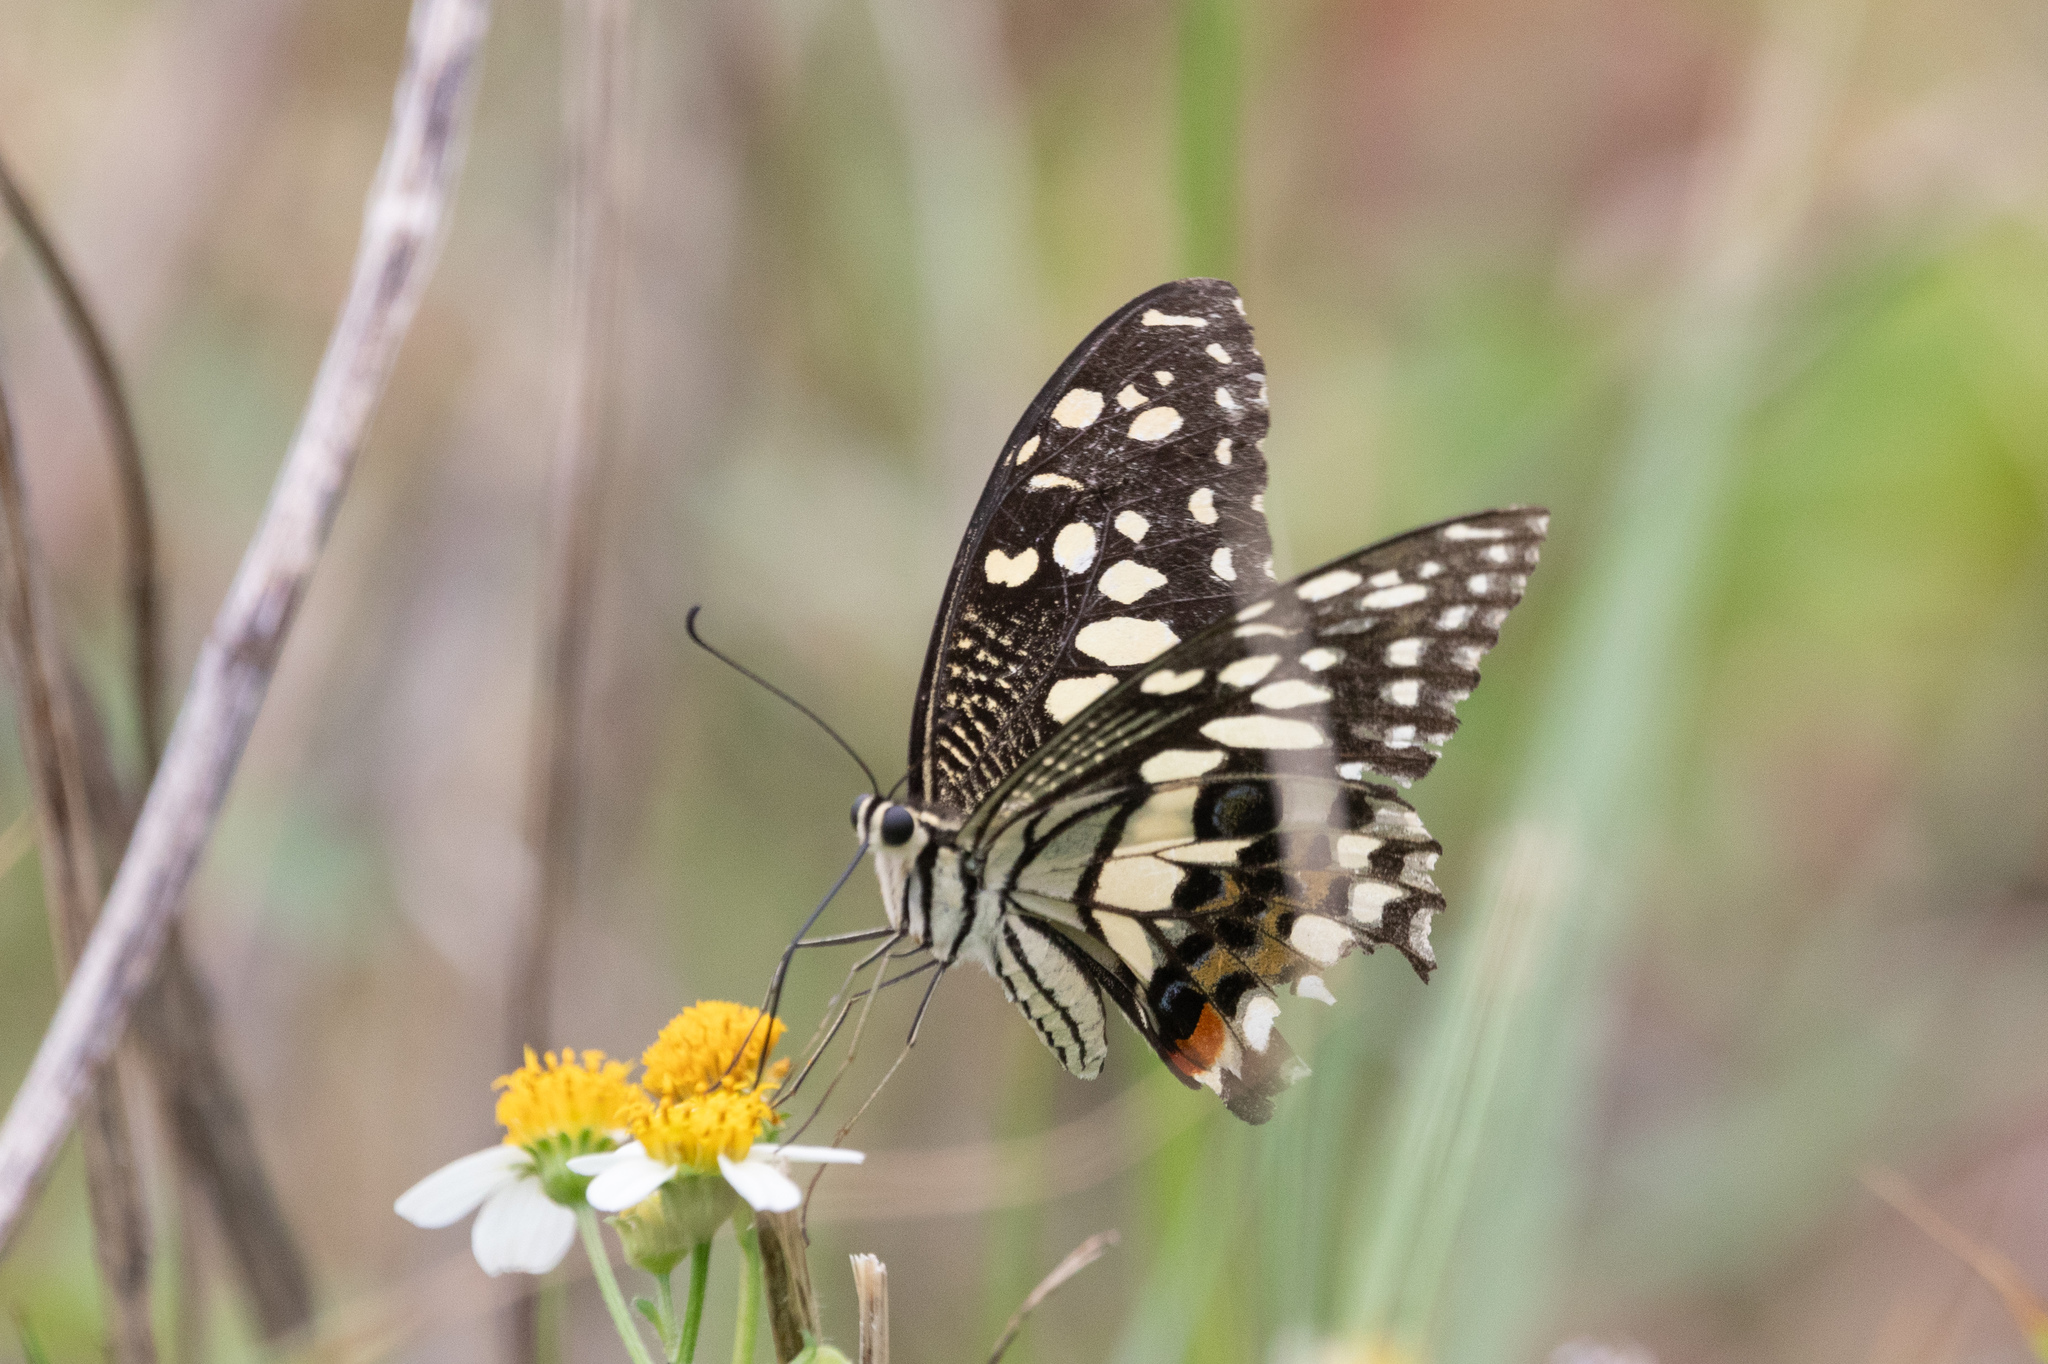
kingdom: Animalia
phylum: Arthropoda
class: Insecta
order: Lepidoptera
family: Papilionidae
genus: Papilio
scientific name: Papilio demoleus
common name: Lime butterfly
